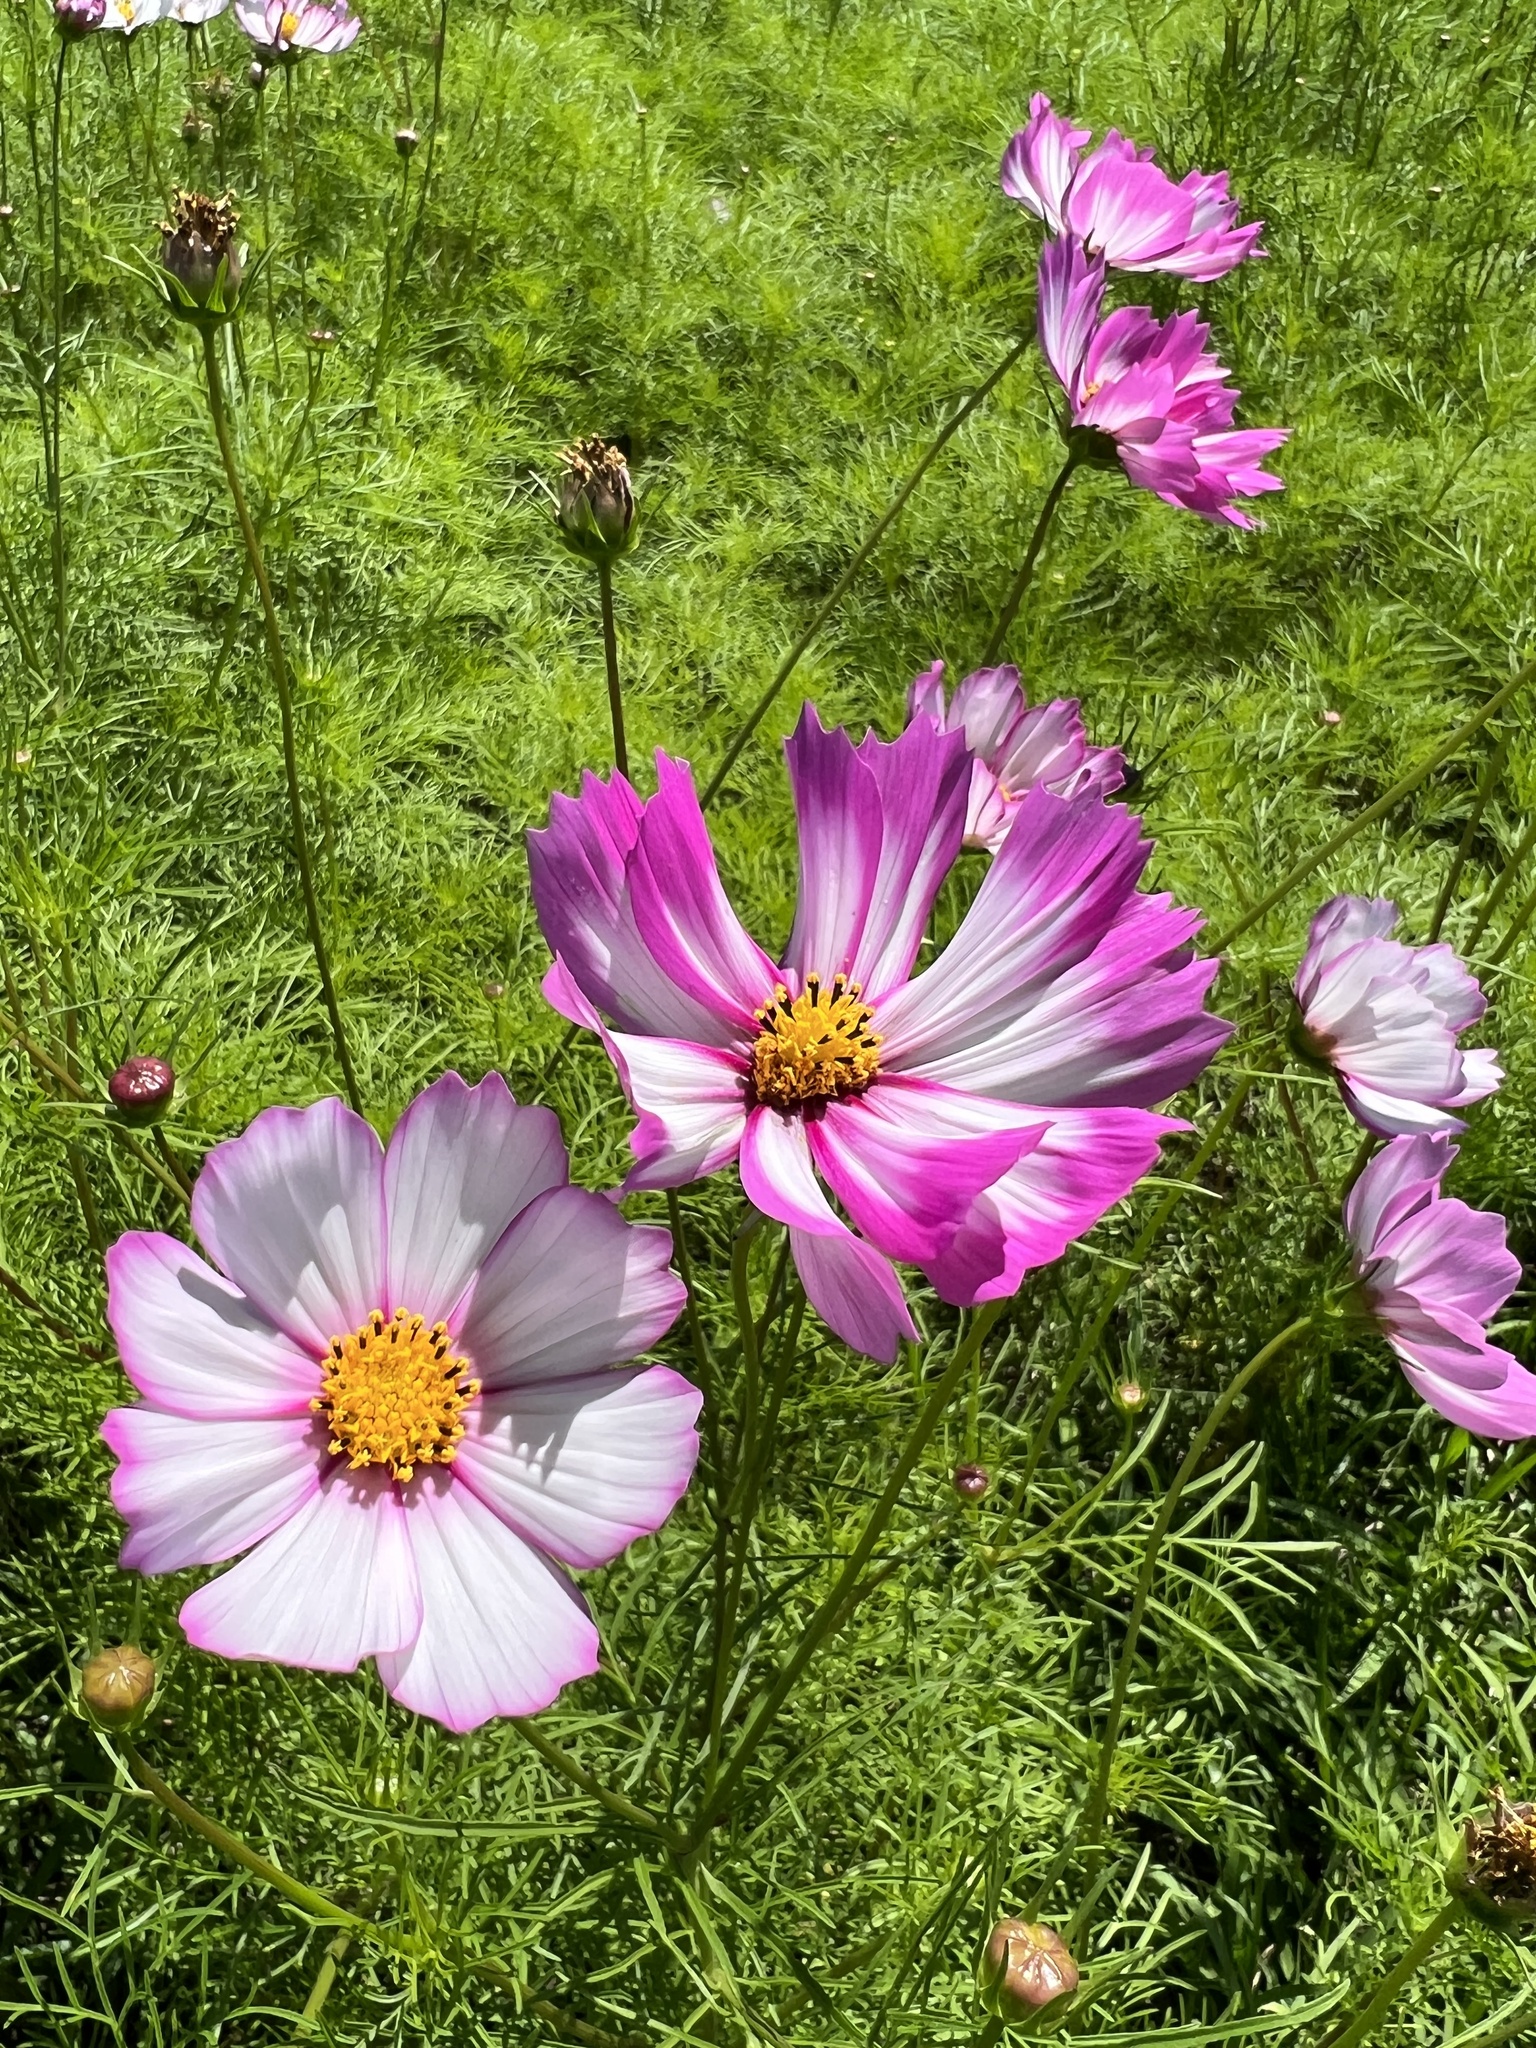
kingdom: Plantae
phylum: Tracheophyta
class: Magnoliopsida
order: Asterales
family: Asteraceae
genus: Cosmos
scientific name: Cosmos bipinnatus
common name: Garden cosmos
